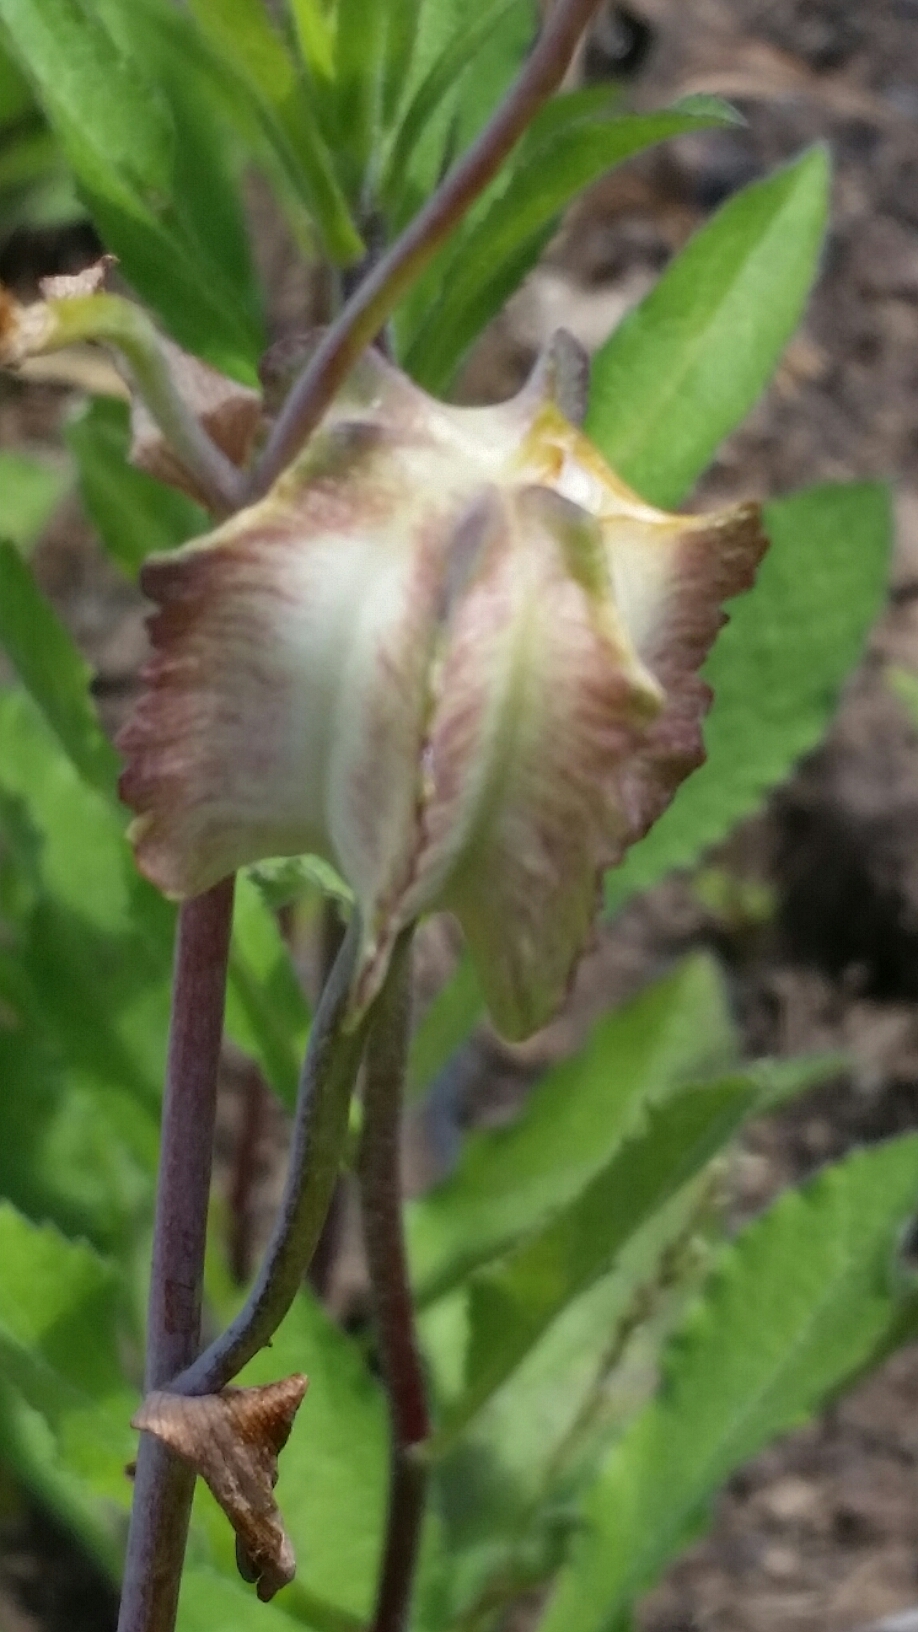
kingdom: Plantae
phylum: Tracheophyta
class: Liliopsida
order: Liliales
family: Liliaceae
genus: Fritillaria
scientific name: Fritillaria affinis
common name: Ojai fritillary
